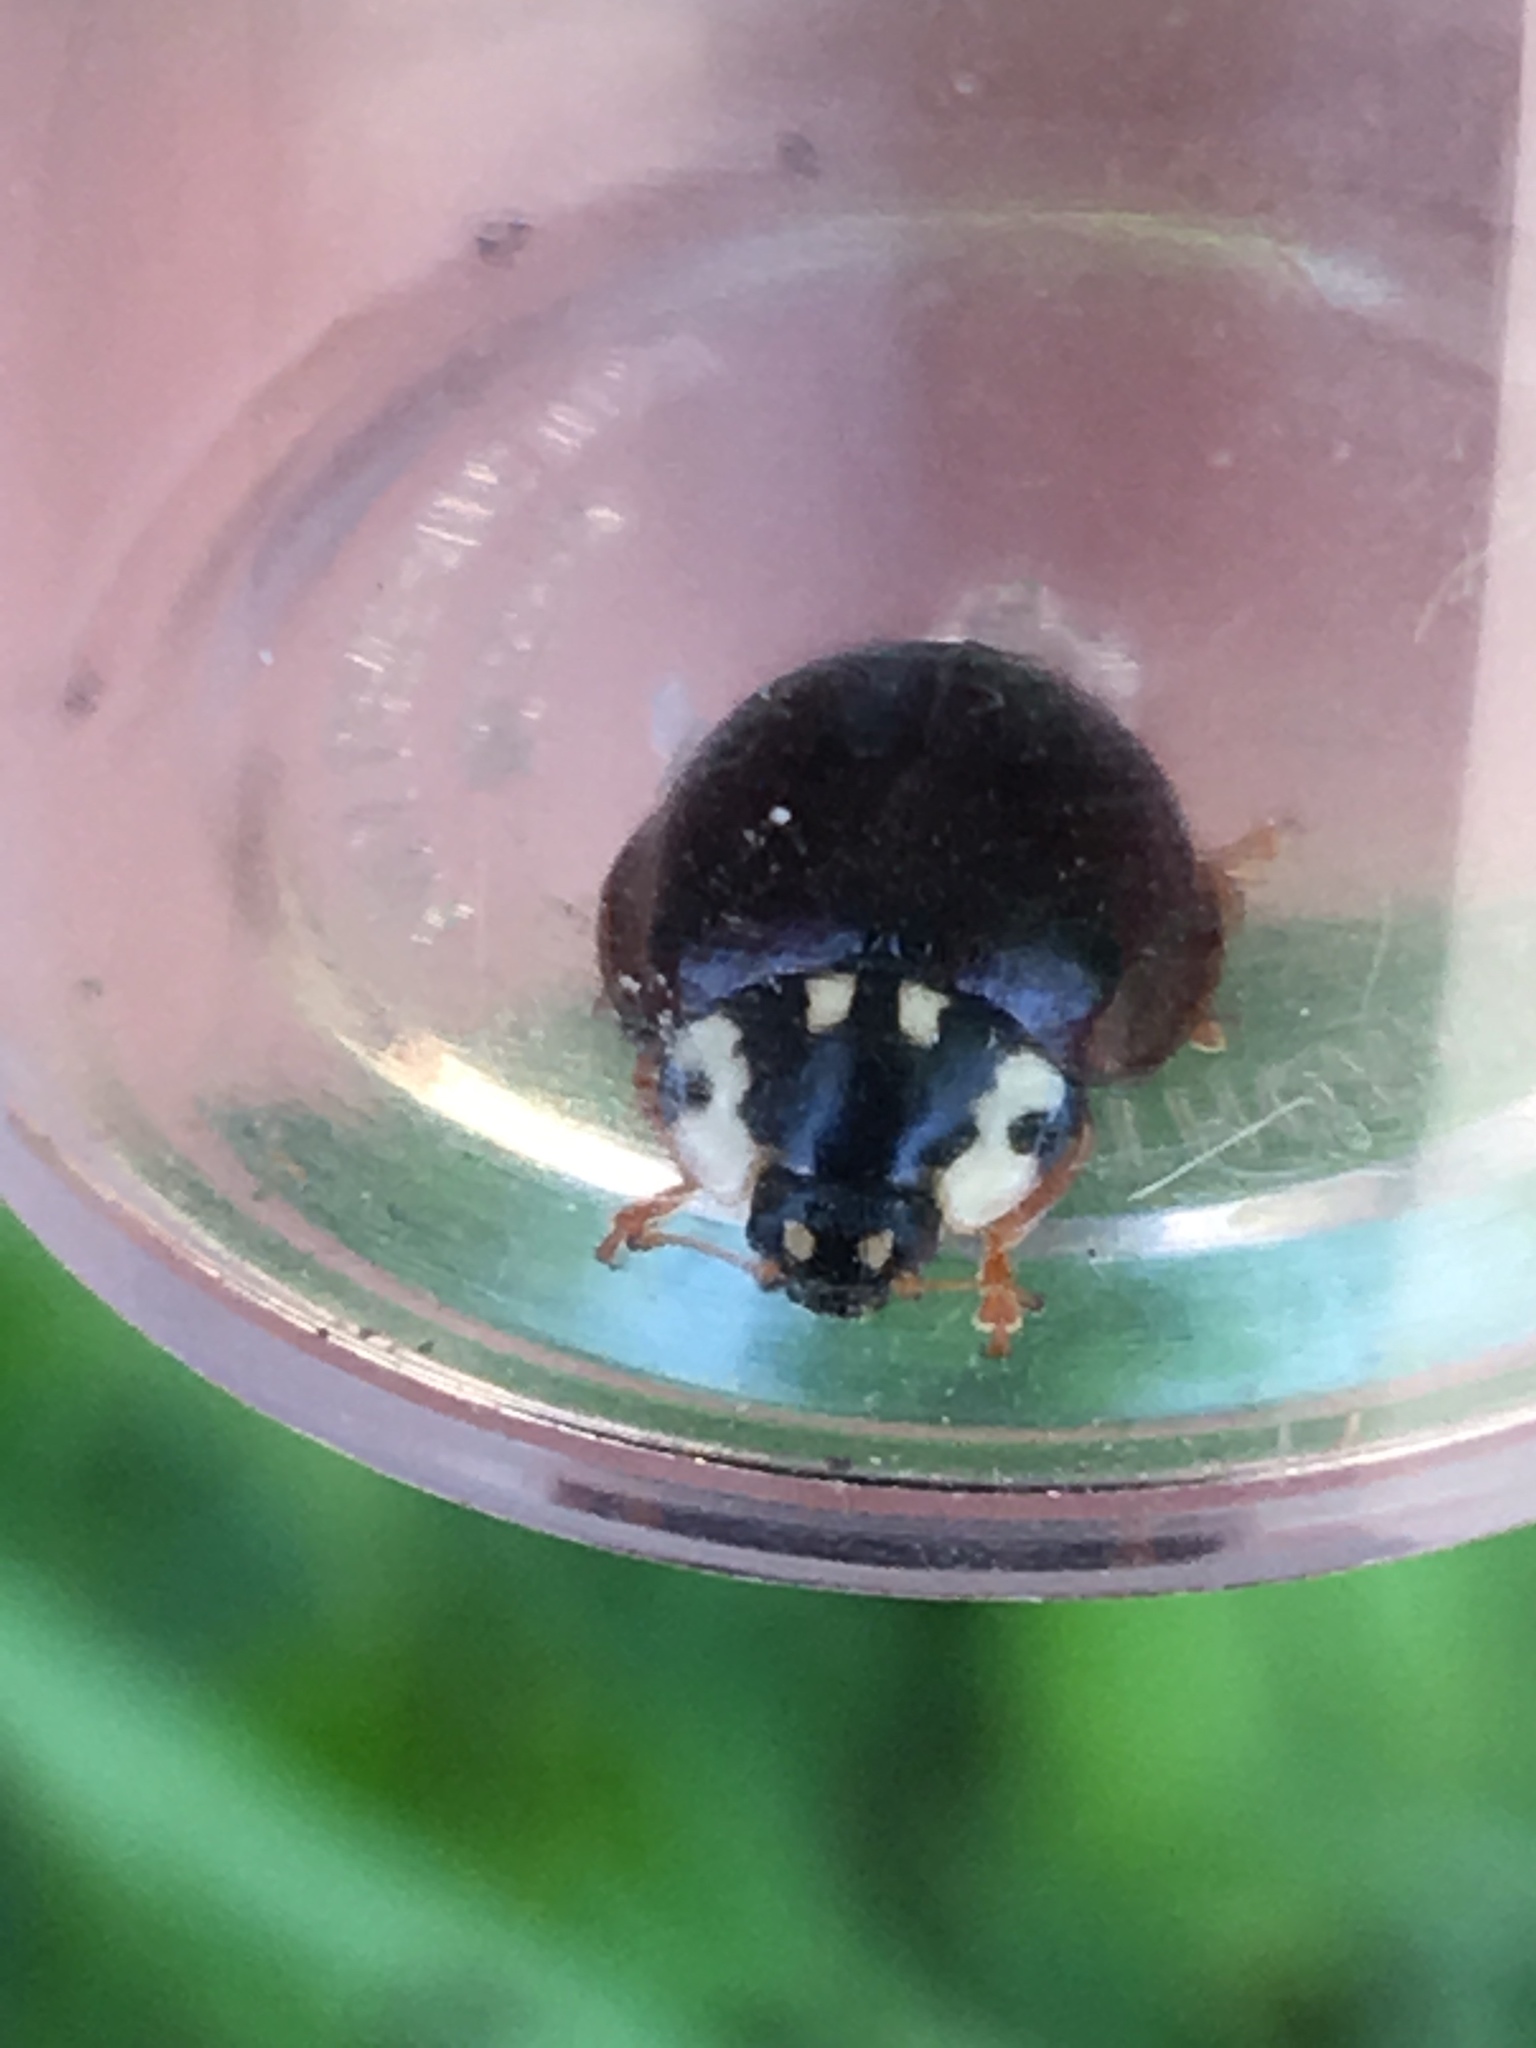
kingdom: Animalia
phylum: Arthropoda
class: Insecta
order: Coleoptera
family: Coccinellidae
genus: Anatis
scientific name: Anatis labiculata
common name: Fifteen-spotted lady beetle
